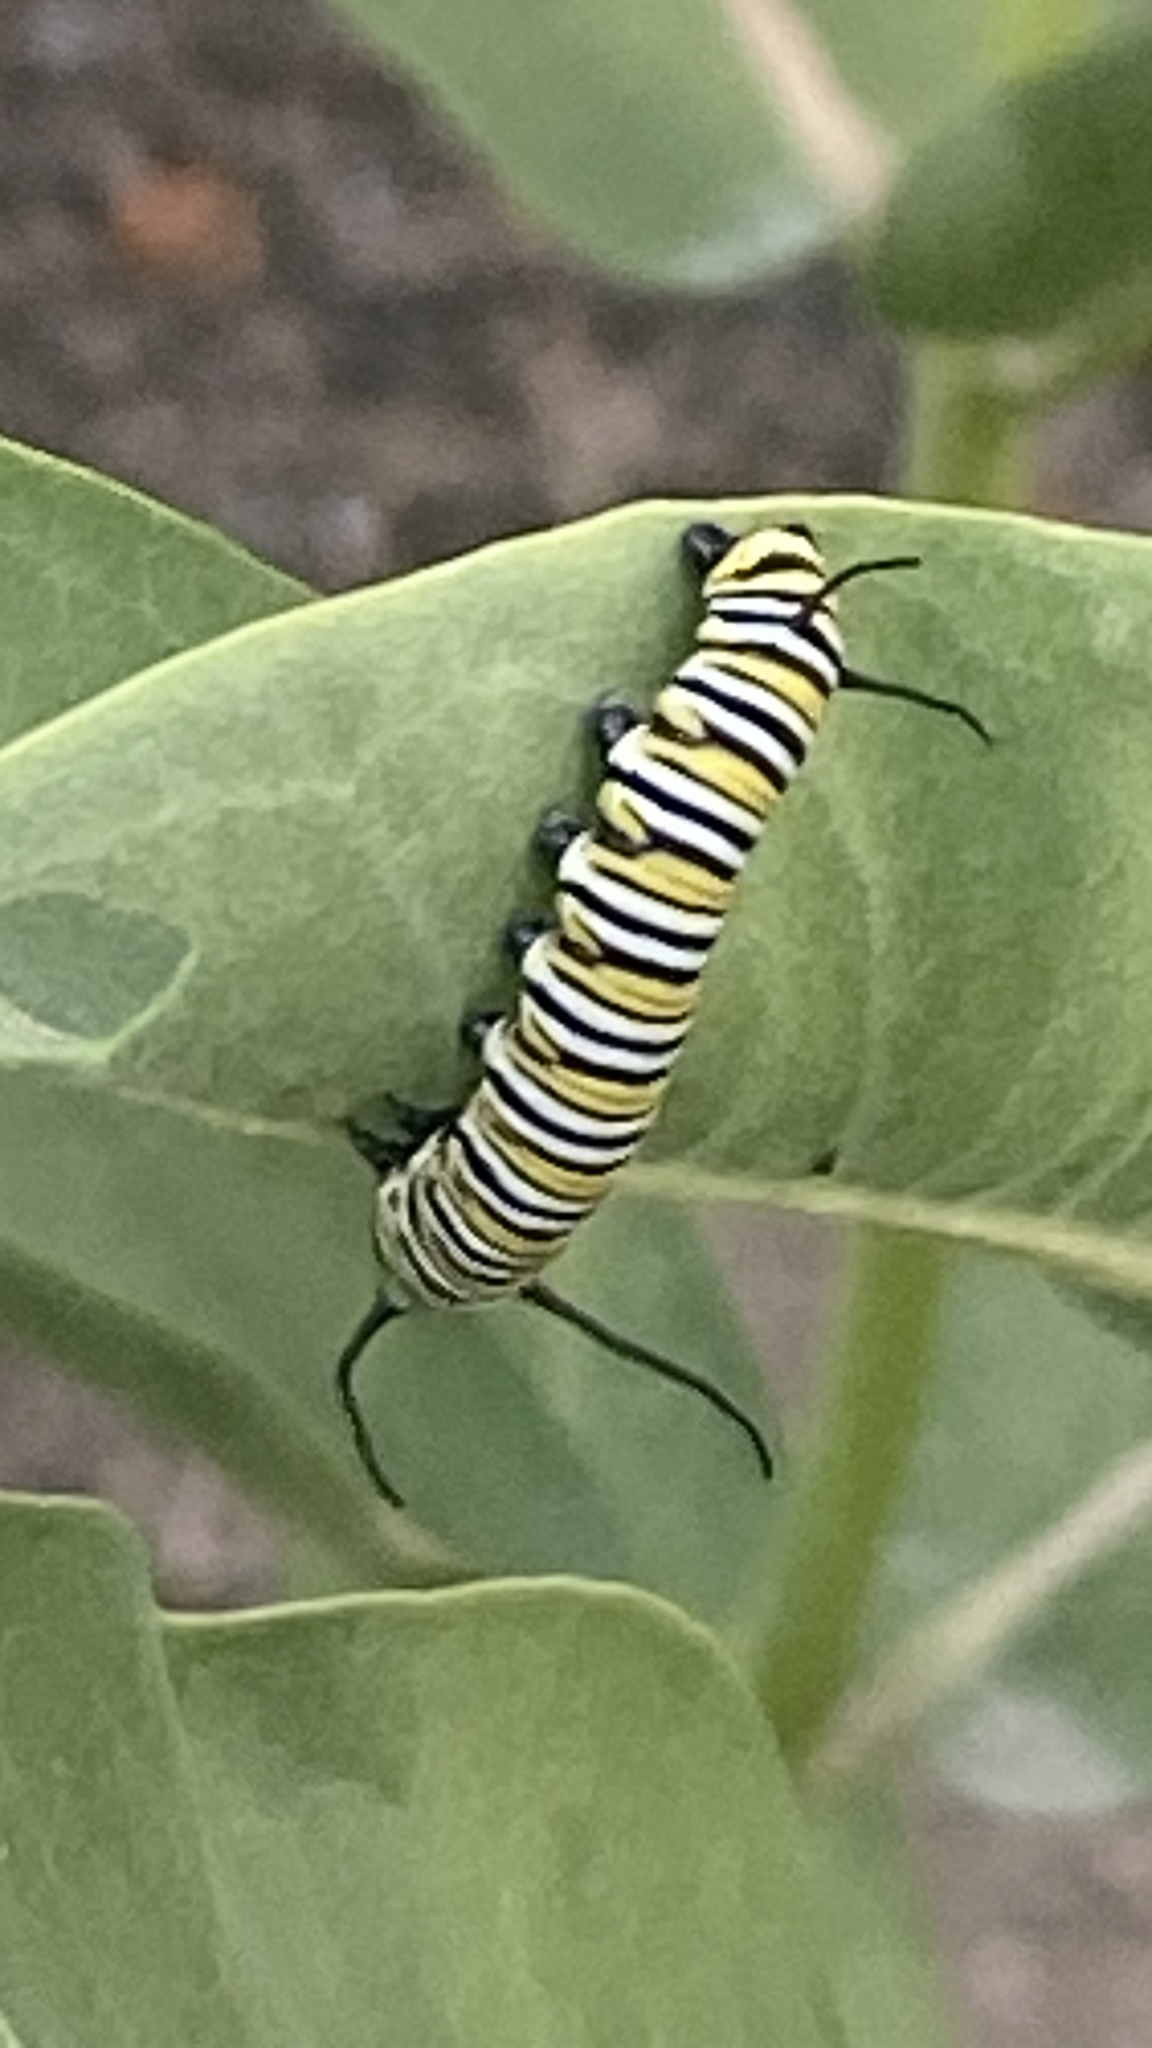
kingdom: Animalia
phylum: Arthropoda
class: Insecta
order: Lepidoptera
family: Nymphalidae
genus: Danaus
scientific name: Danaus plexippus
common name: Monarch
